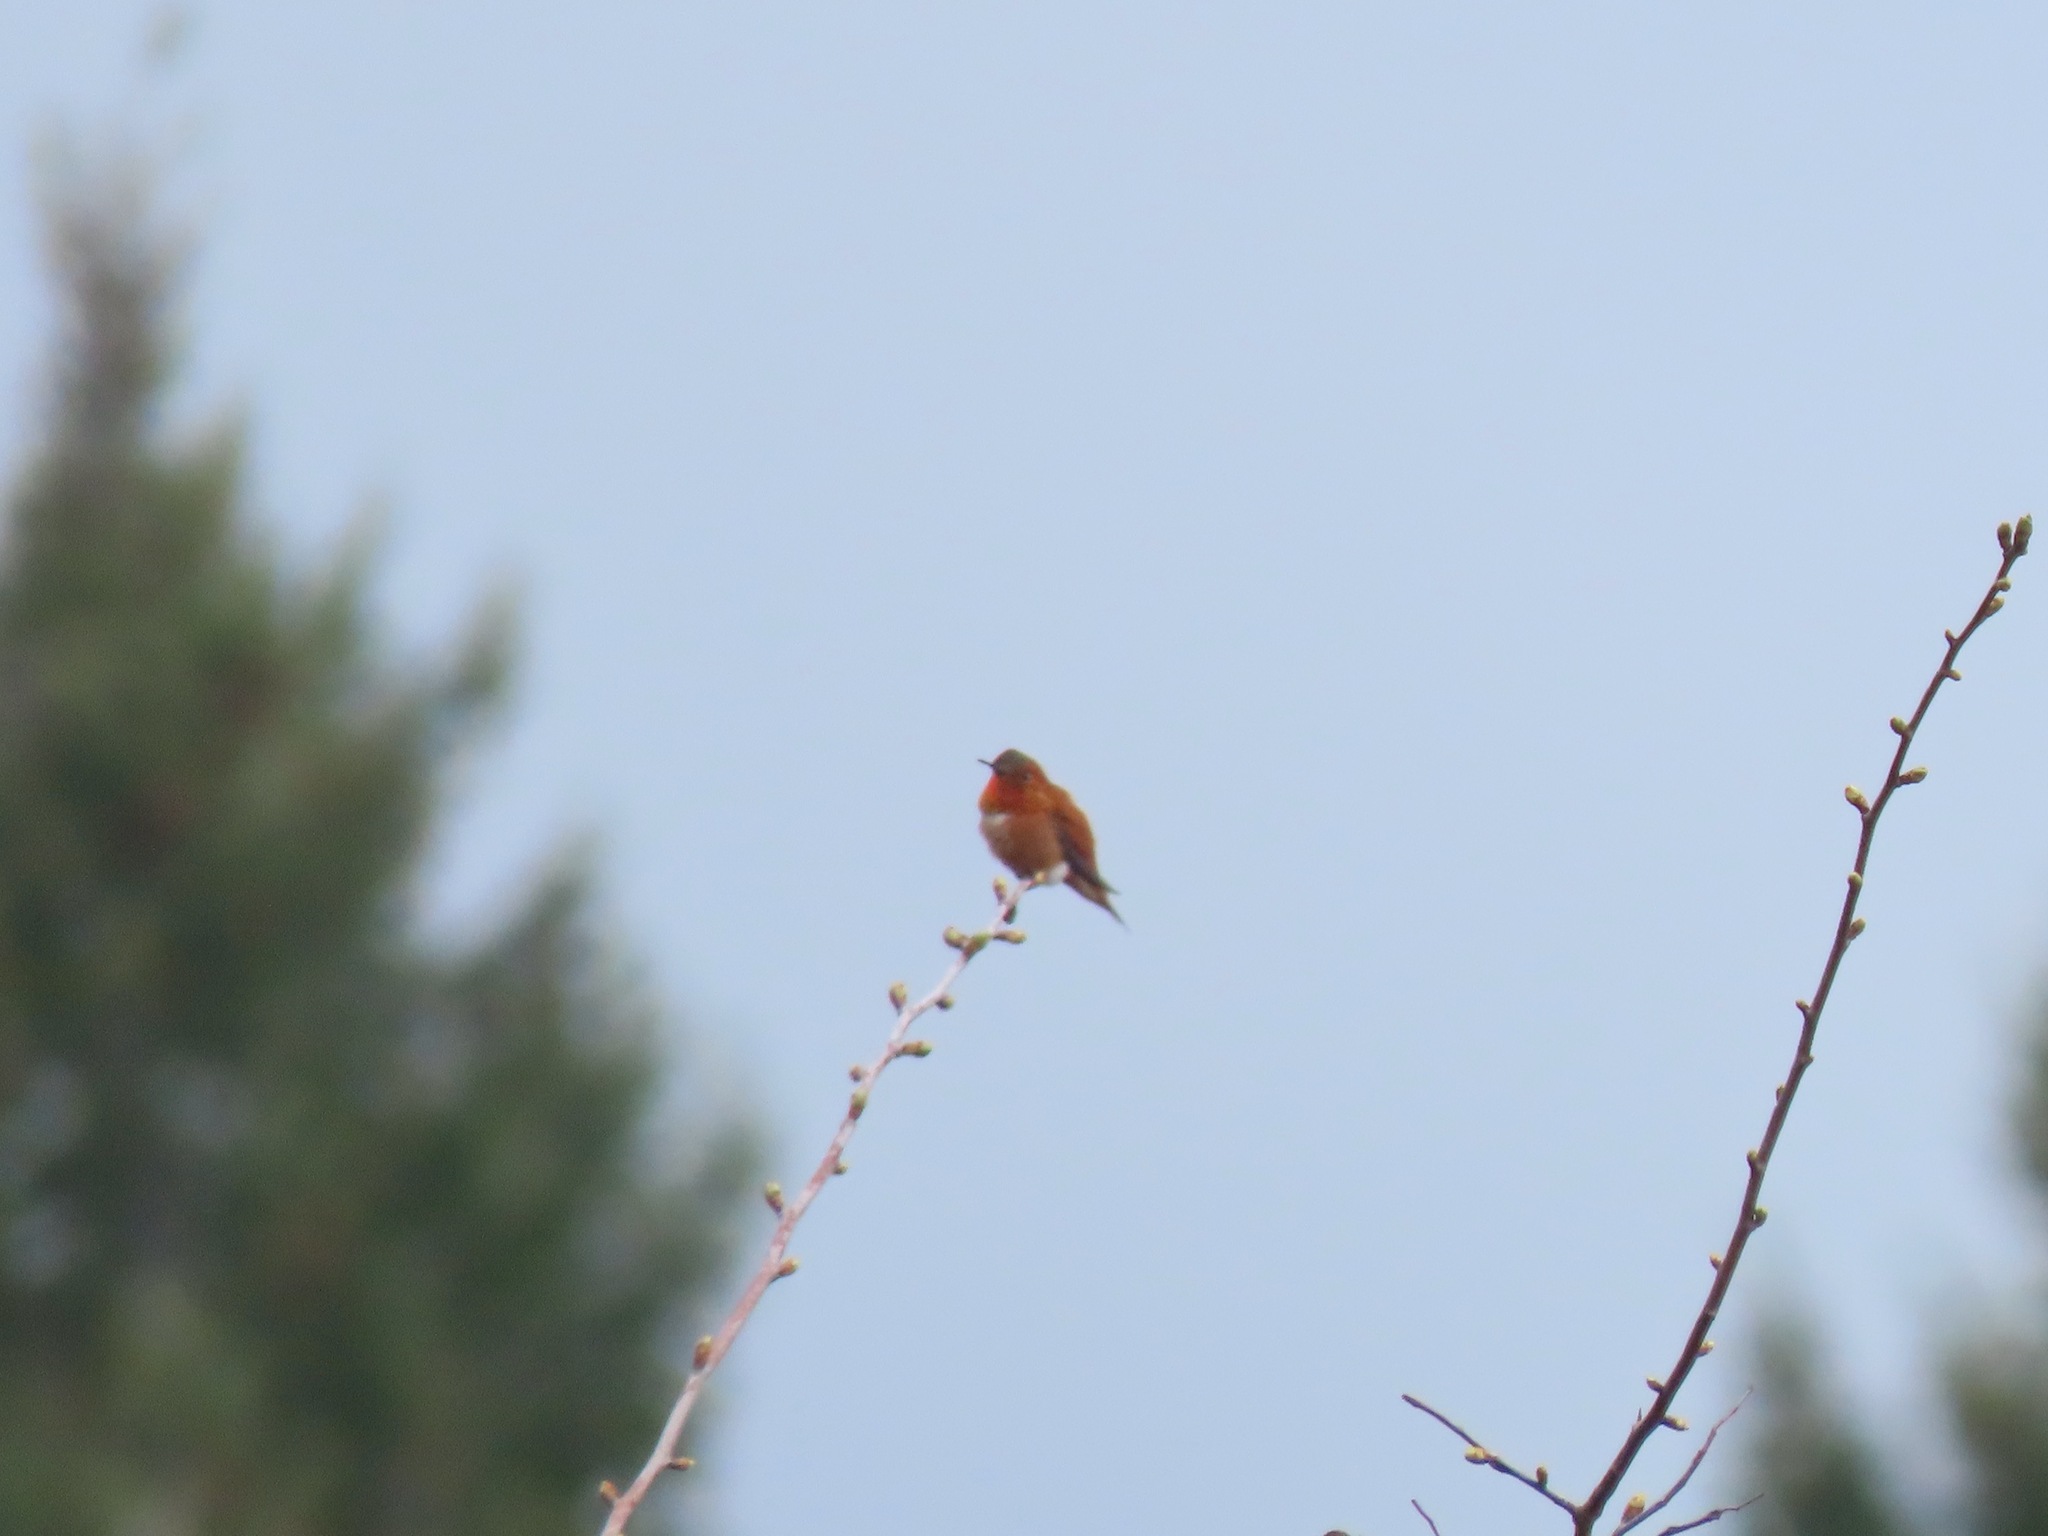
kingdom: Animalia
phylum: Chordata
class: Aves
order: Apodiformes
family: Trochilidae
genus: Selasphorus
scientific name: Selasphorus rufus
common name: Rufous hummingbird
